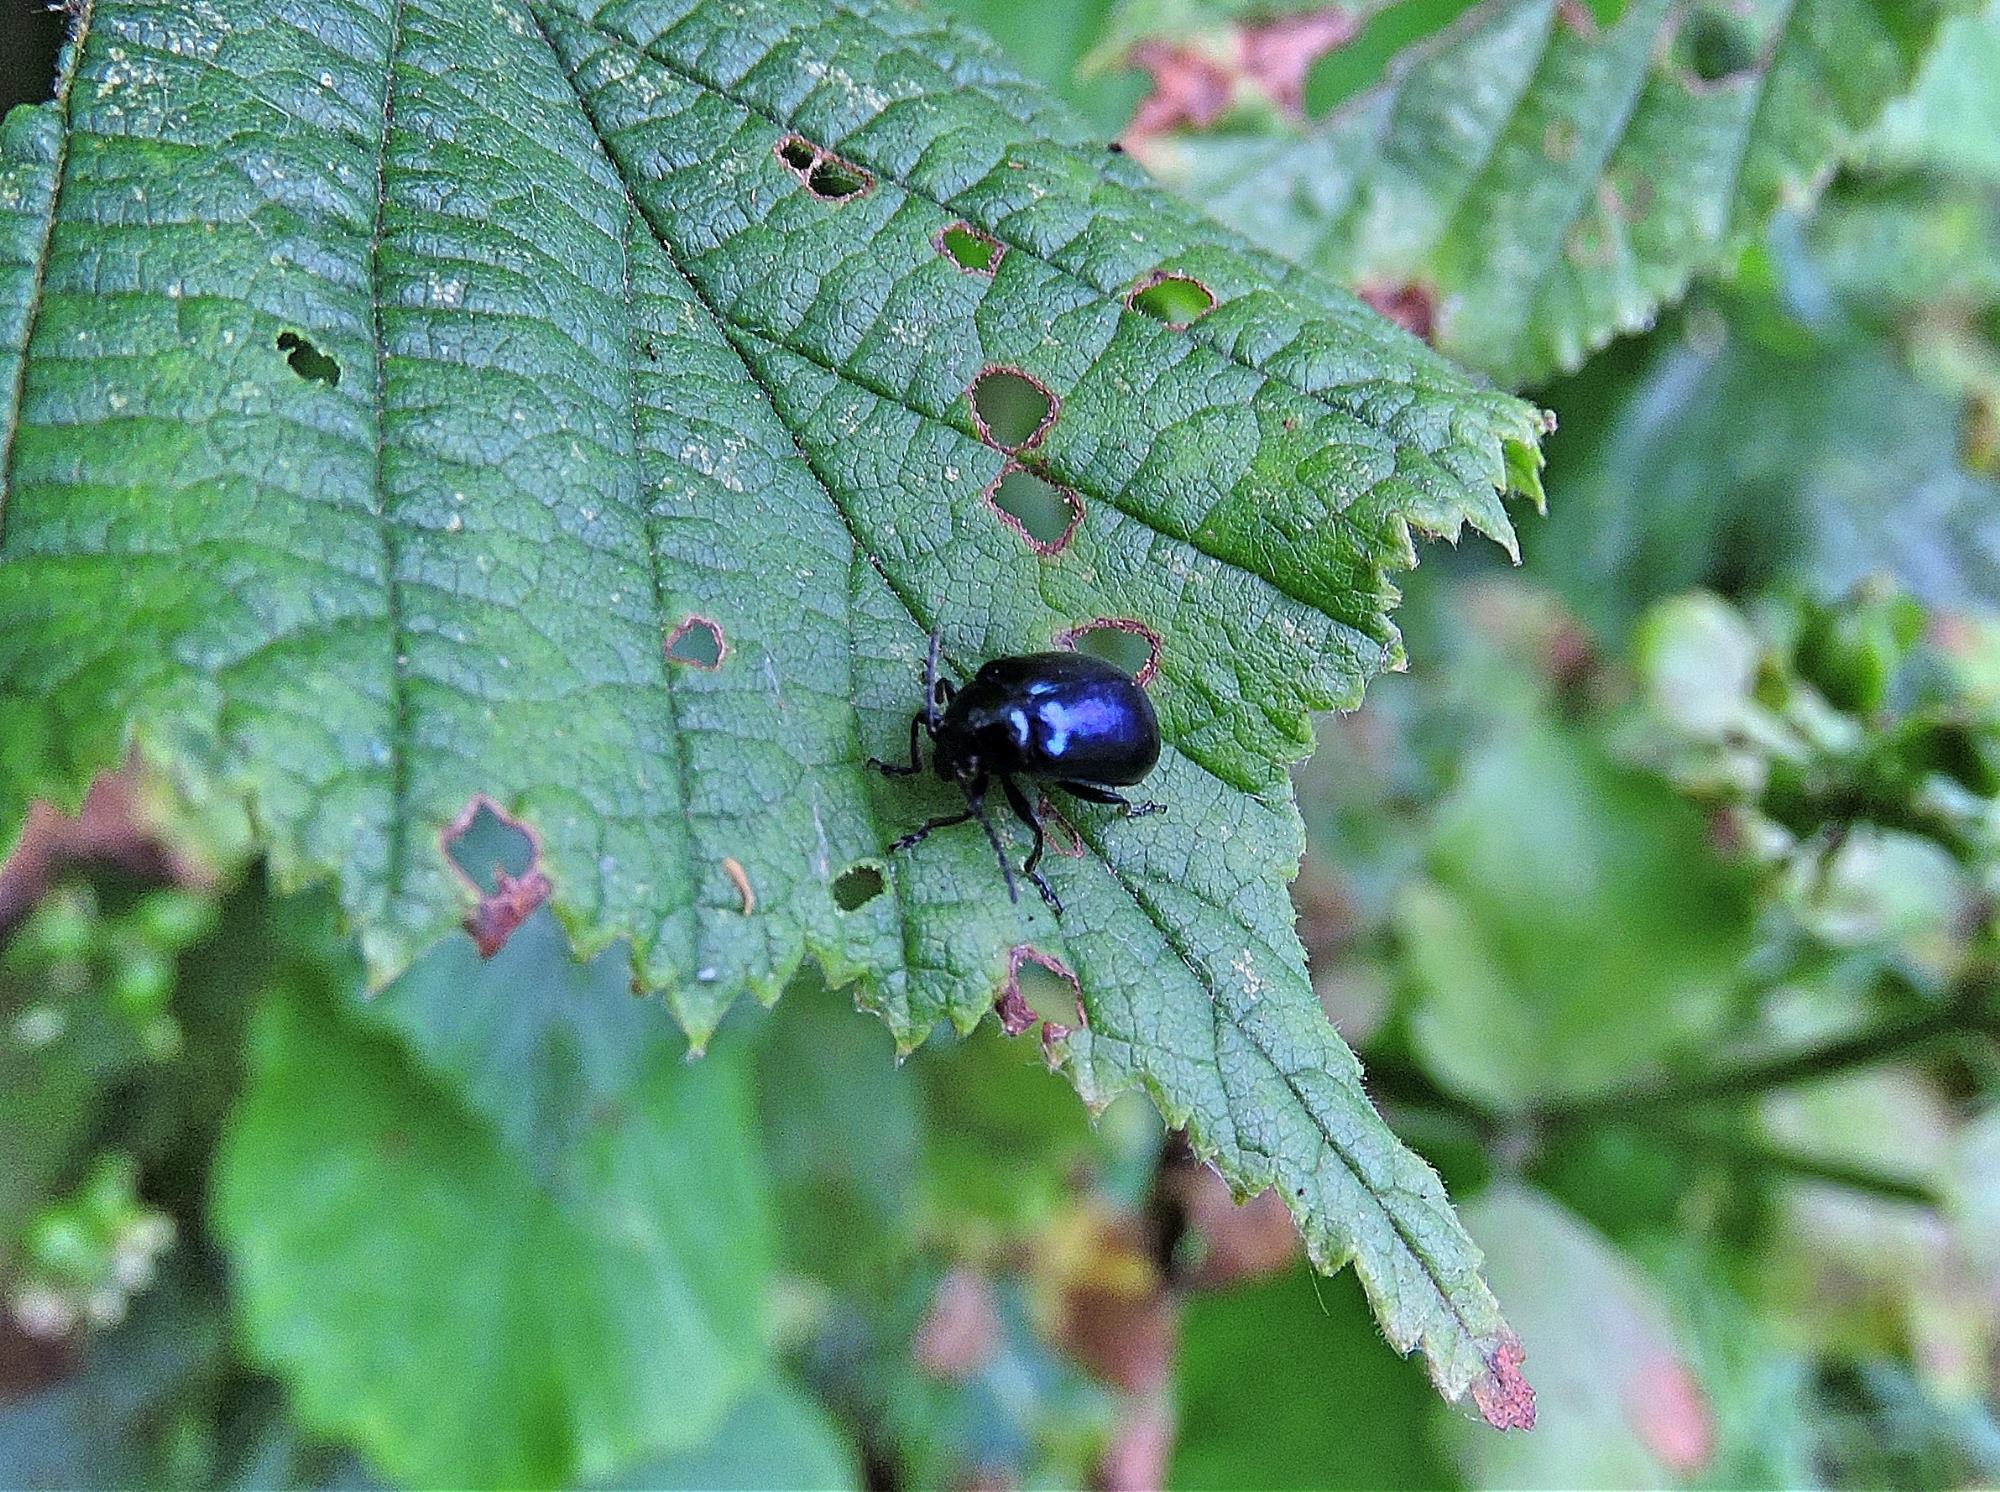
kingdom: Animalia
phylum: Arthropoda
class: Insecta
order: Coleoptera
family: Chrysomelidae
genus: Agelastica
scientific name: Agelastica alni
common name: Alder leaf beetle
